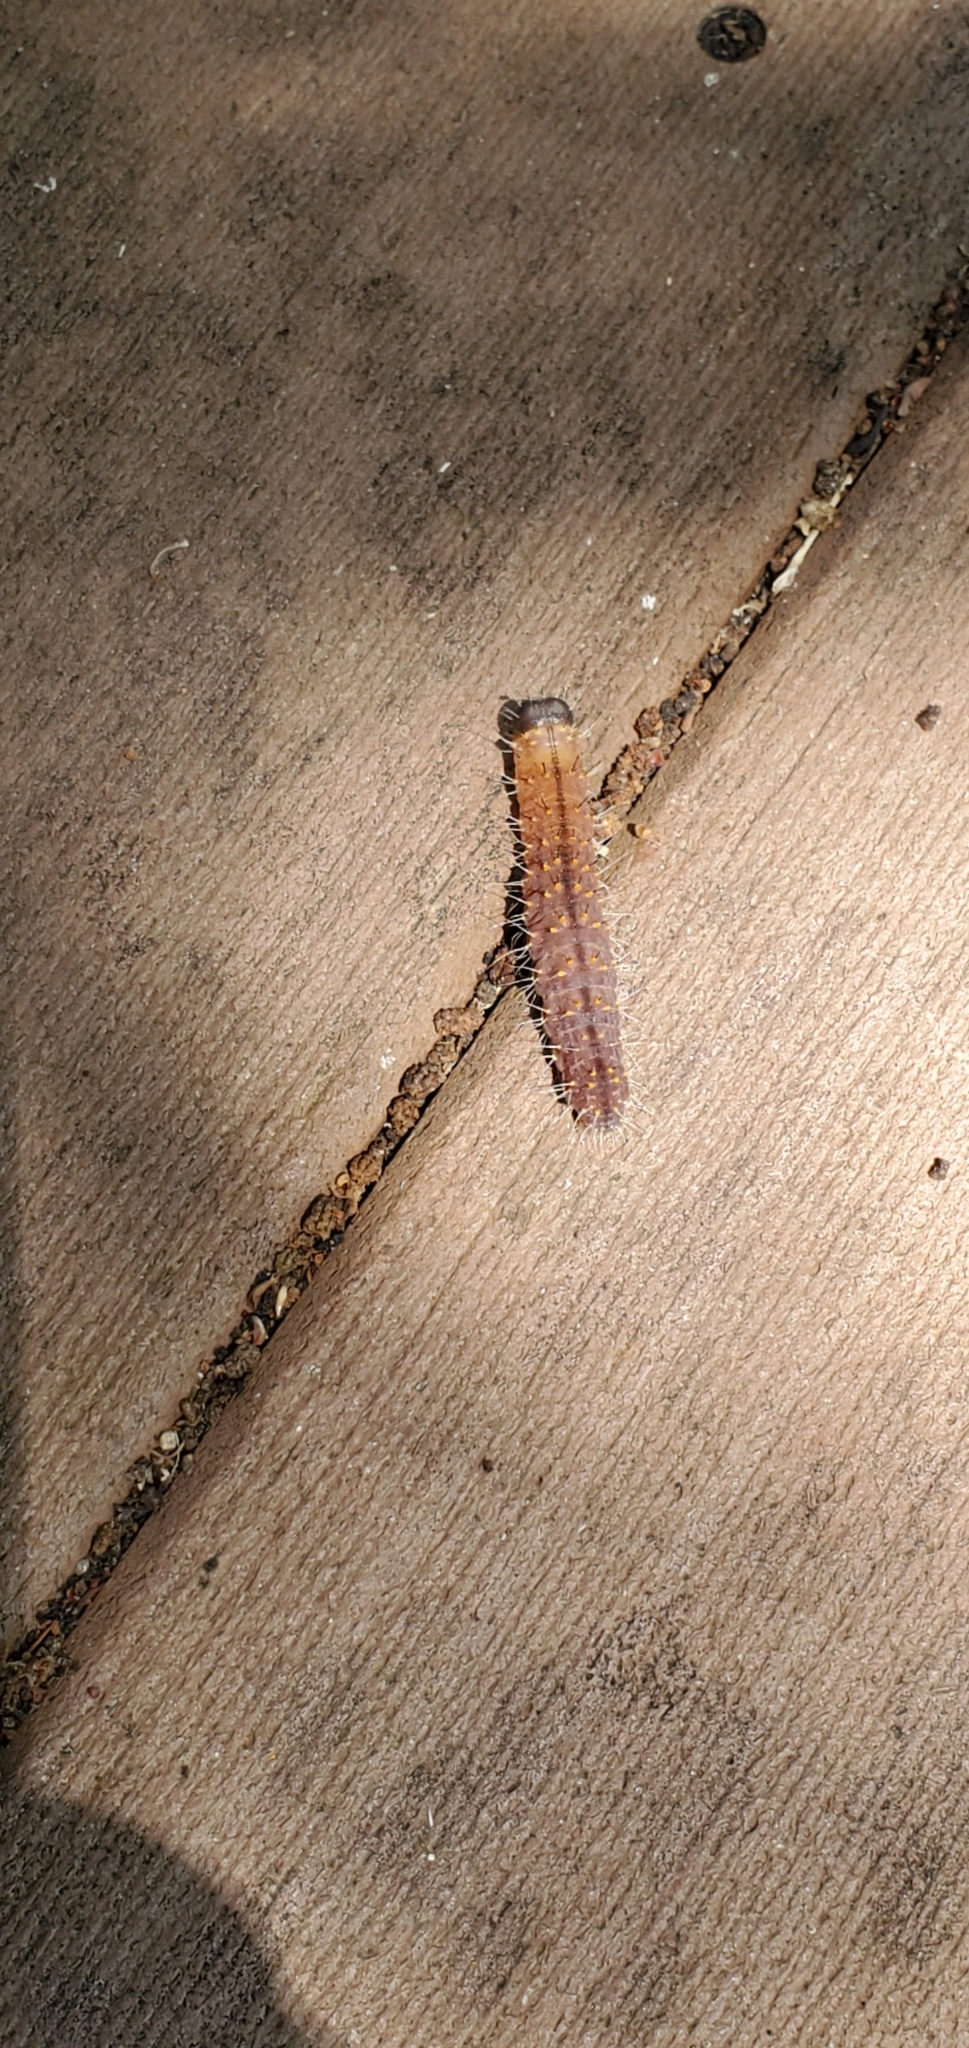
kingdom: Animalia
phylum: Arthropoda
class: Insecta
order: Lepidoptera
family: Noctuidae
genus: Acronicta
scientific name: Acronicta brumosa
